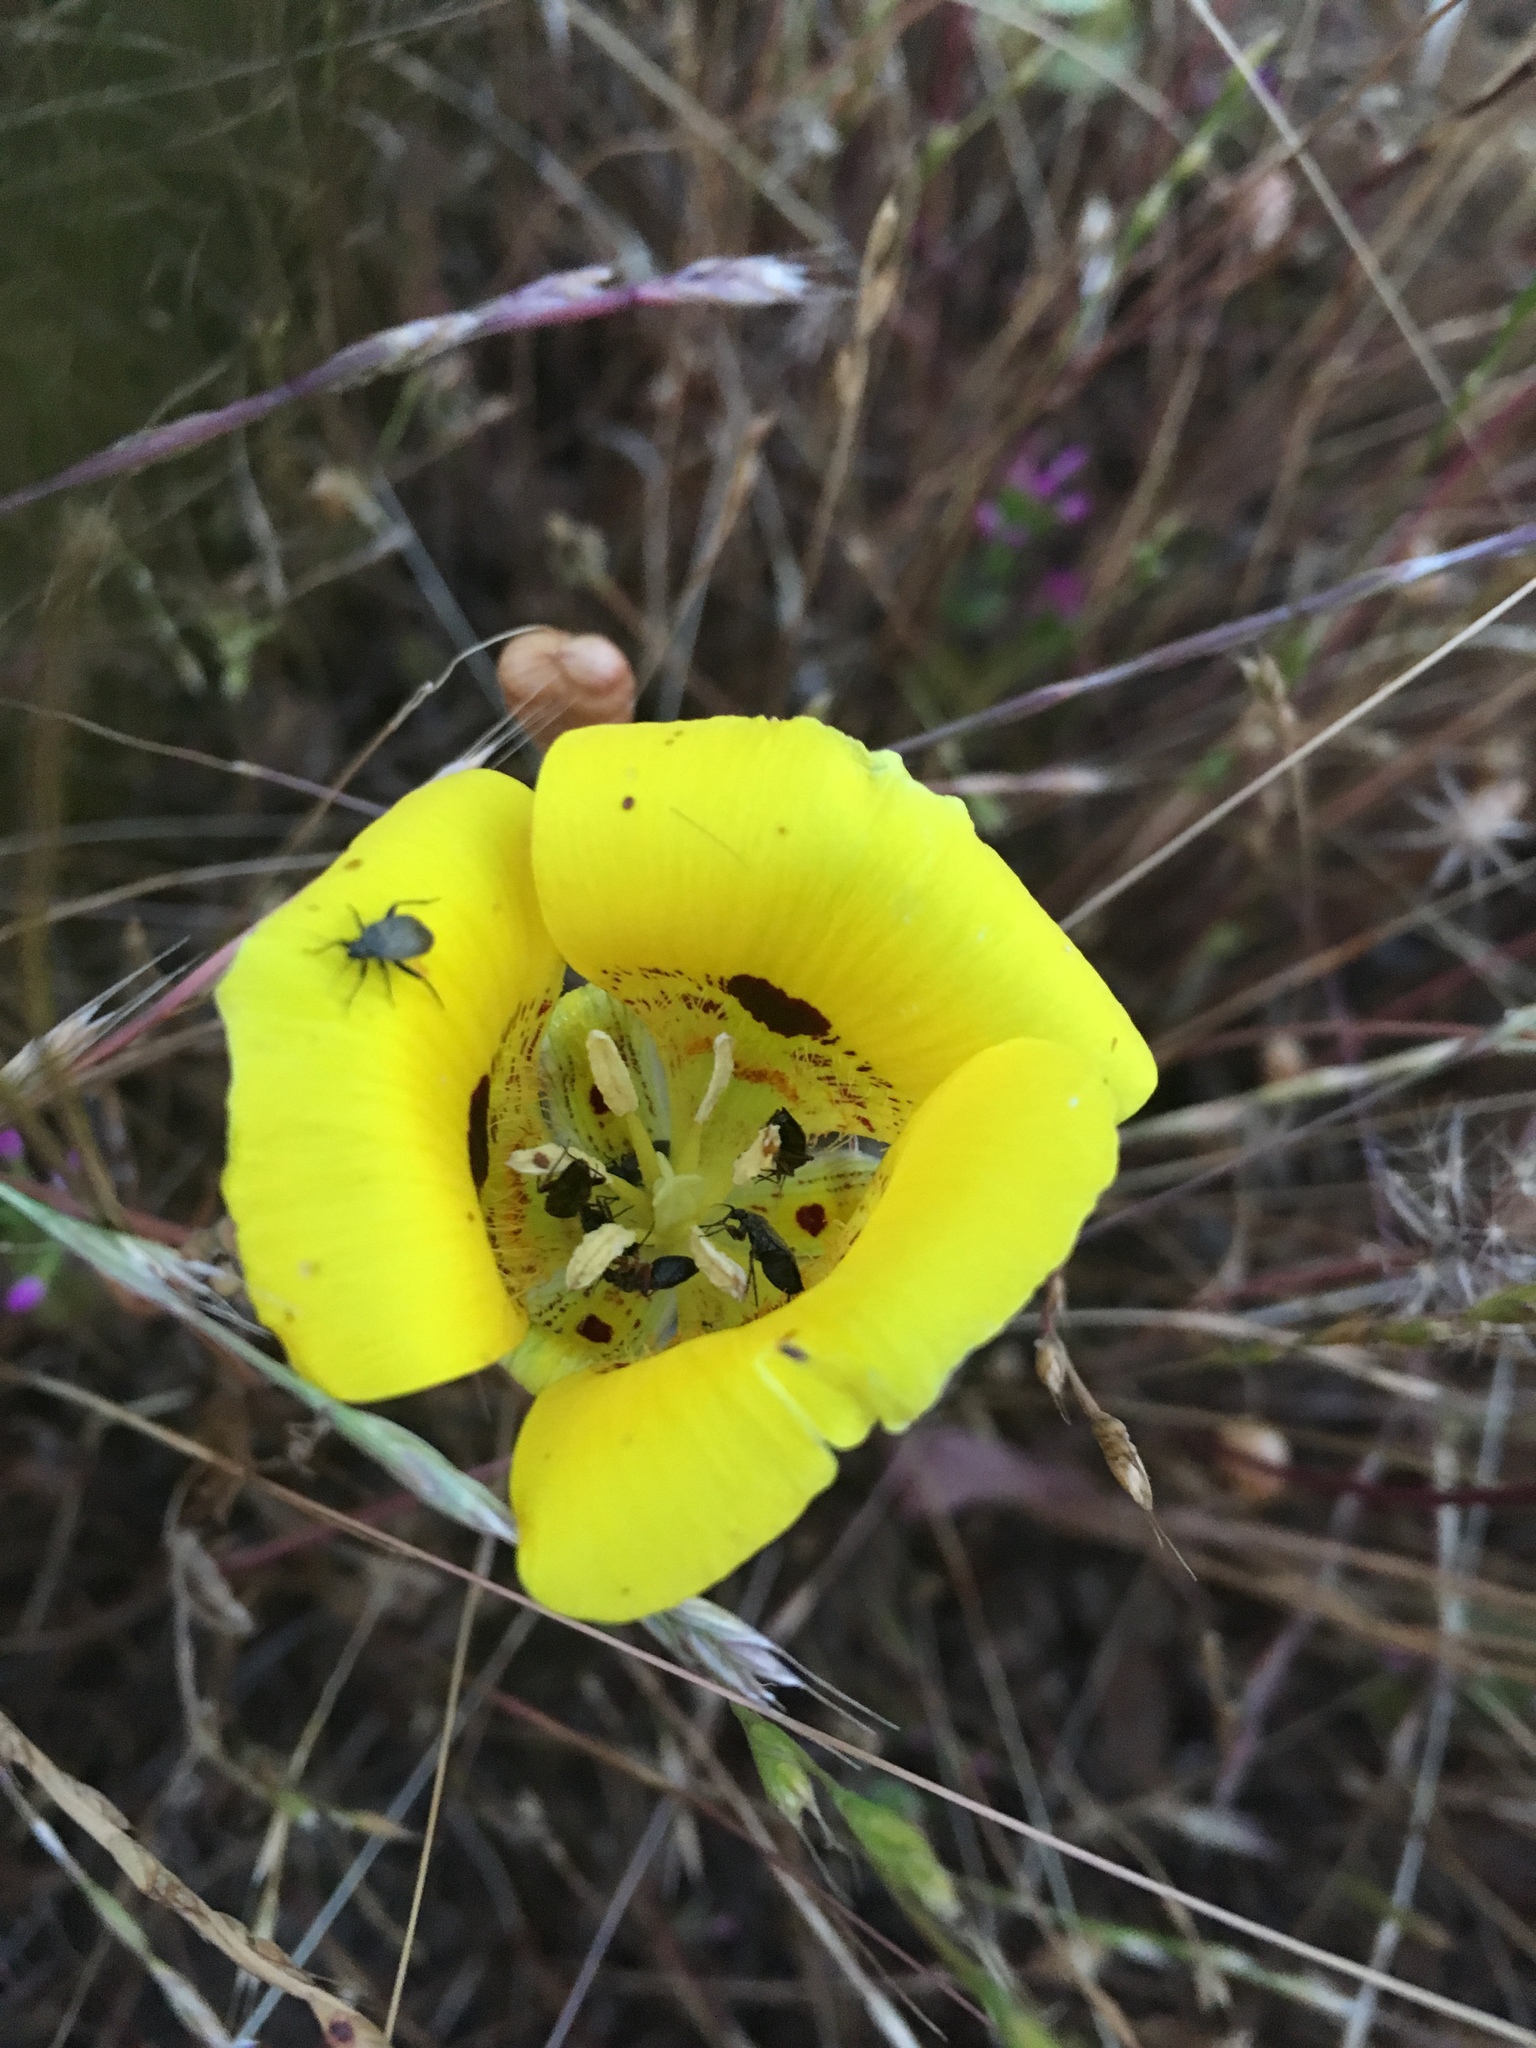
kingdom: Plantae
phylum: Tracheophyta
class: Liliopsida
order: Liliales
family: Liliaceae
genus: Calochortus
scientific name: Calochortus luteus
